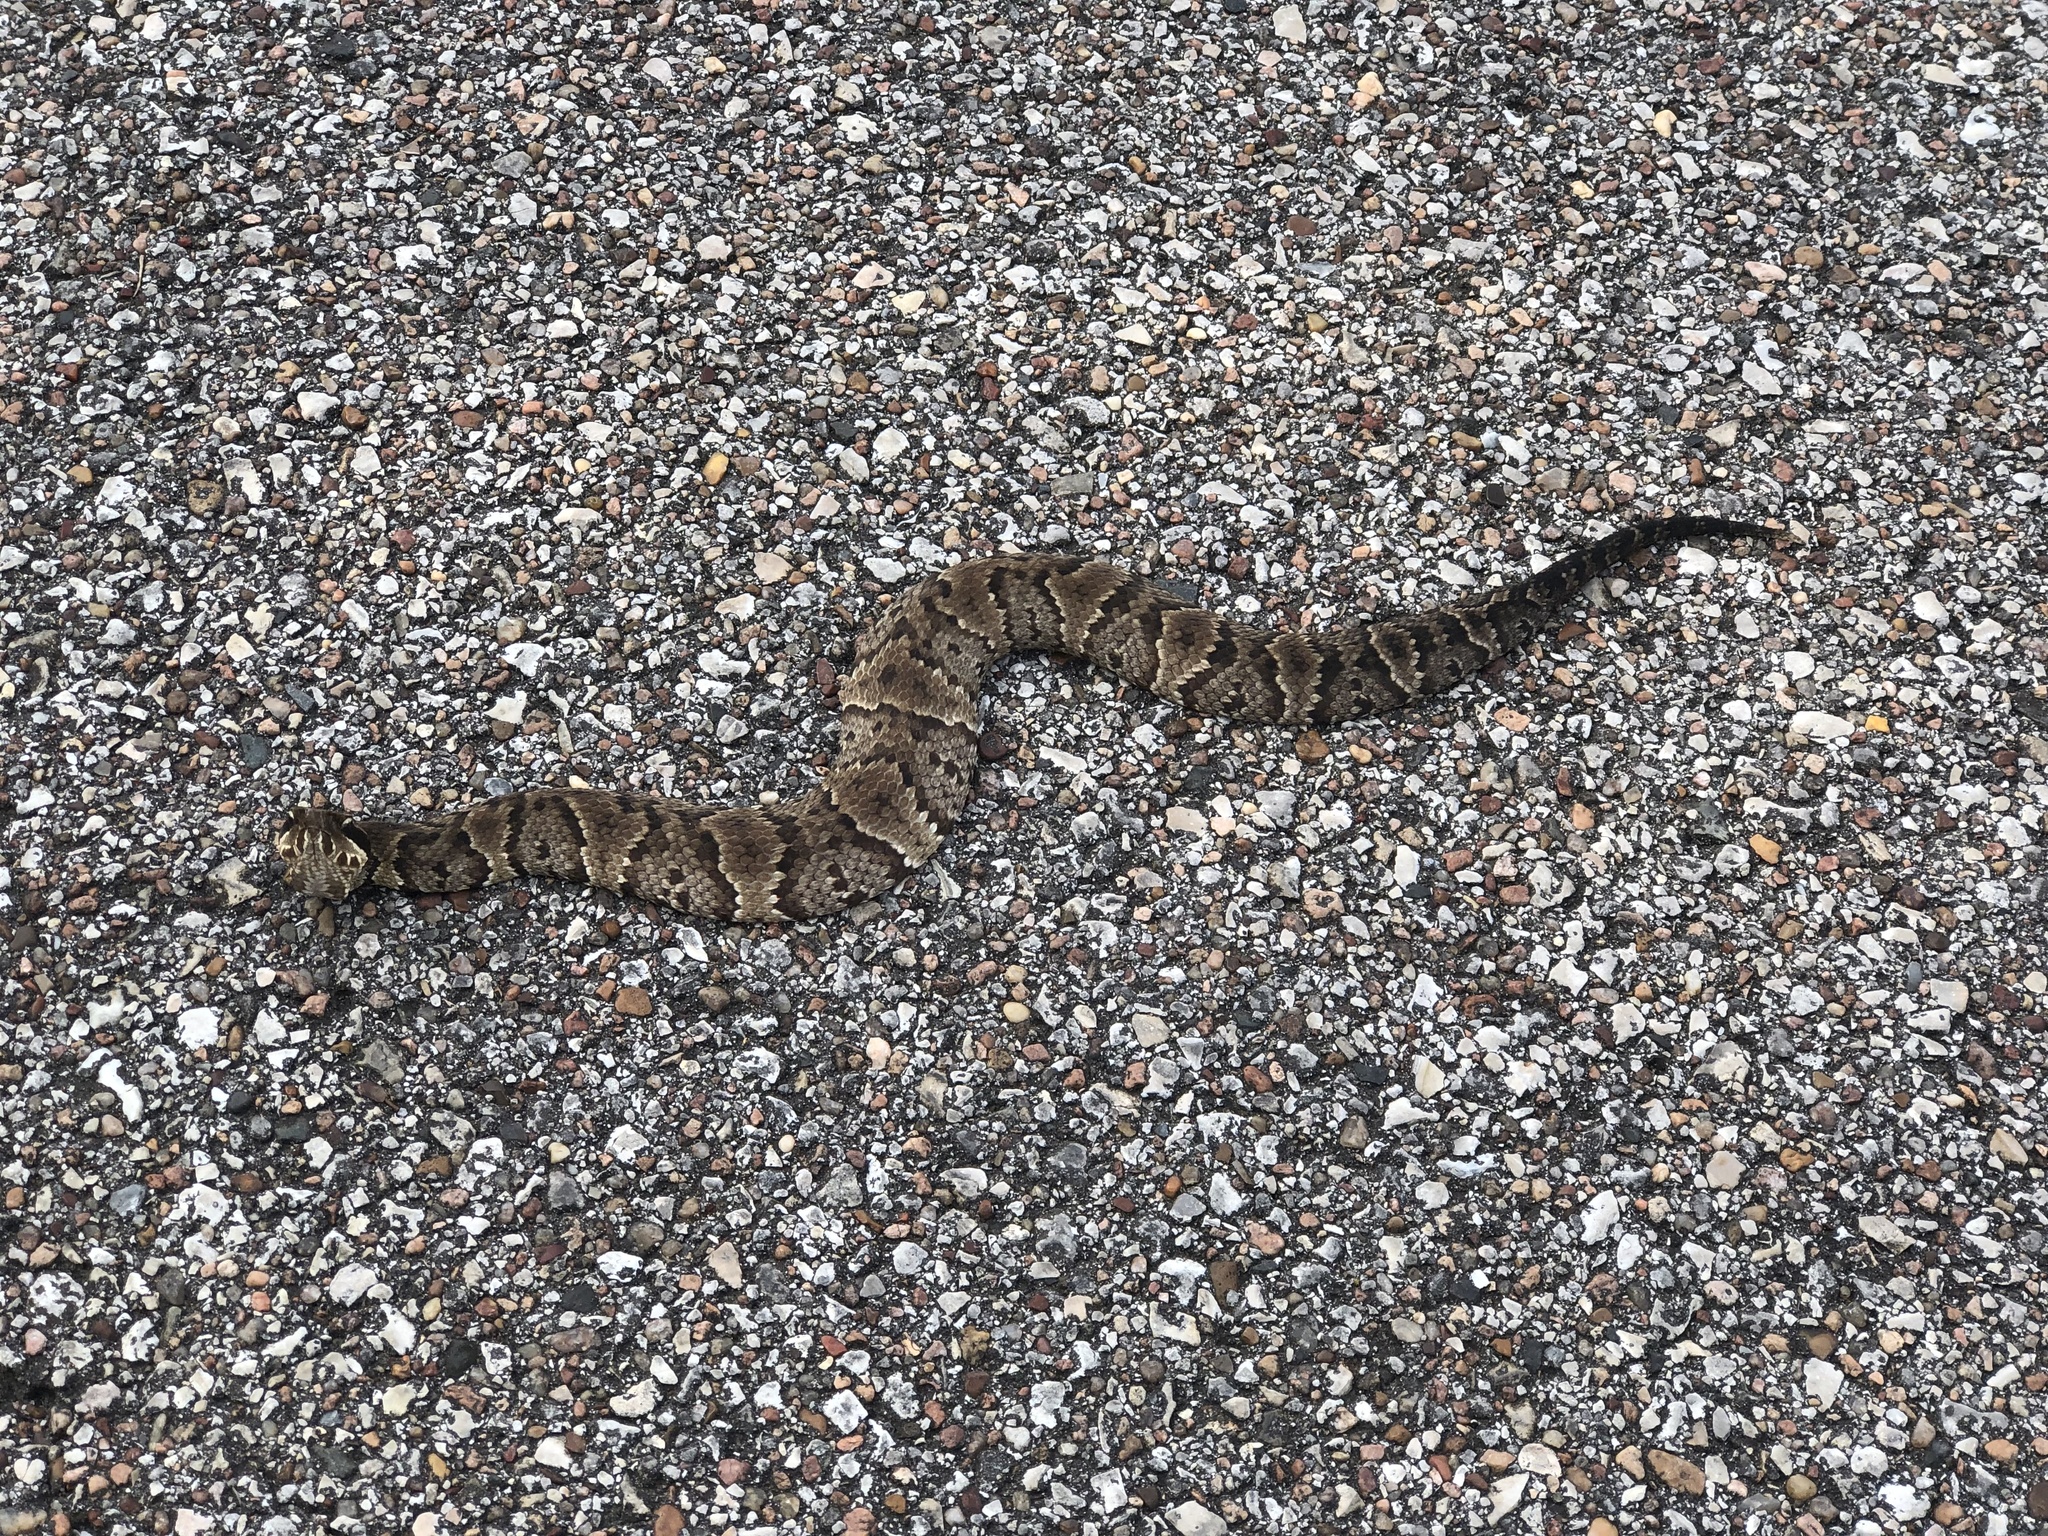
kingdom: Animalia
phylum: Chordata
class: Squamata
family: Viperidae
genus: Agkistrodon
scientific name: Agkistrodon piscivorus
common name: Cottonmouth
